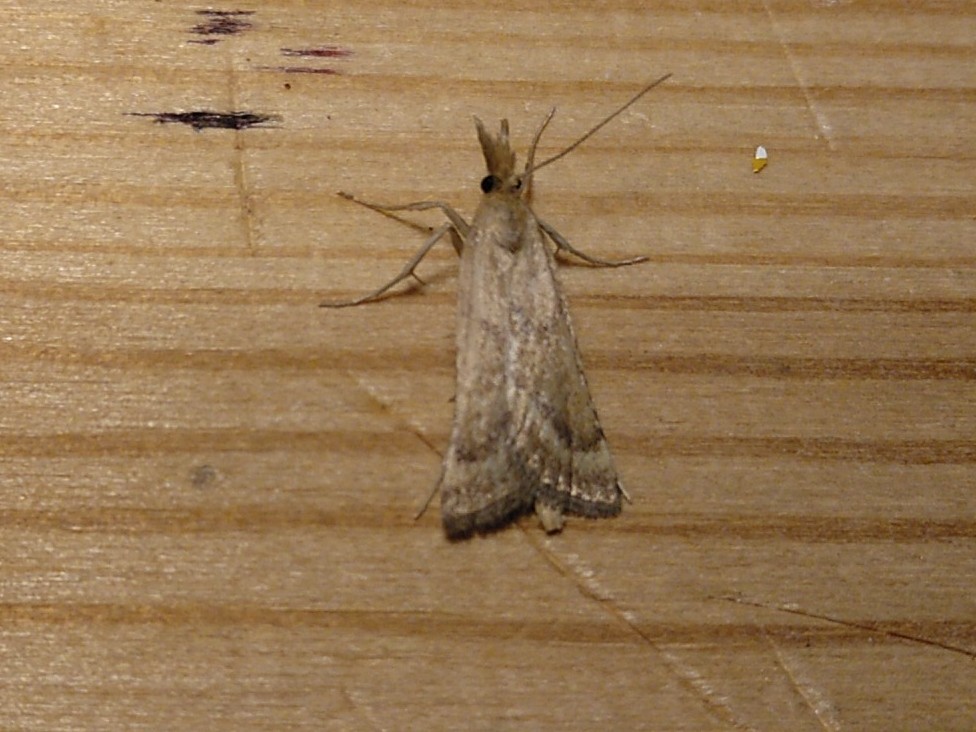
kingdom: Animalia
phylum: Arthropoda
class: Insecta
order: Lepidoptera
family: Pyralidae
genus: Synaphe
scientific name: Synaphe punctalis
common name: Long-legged tabby
